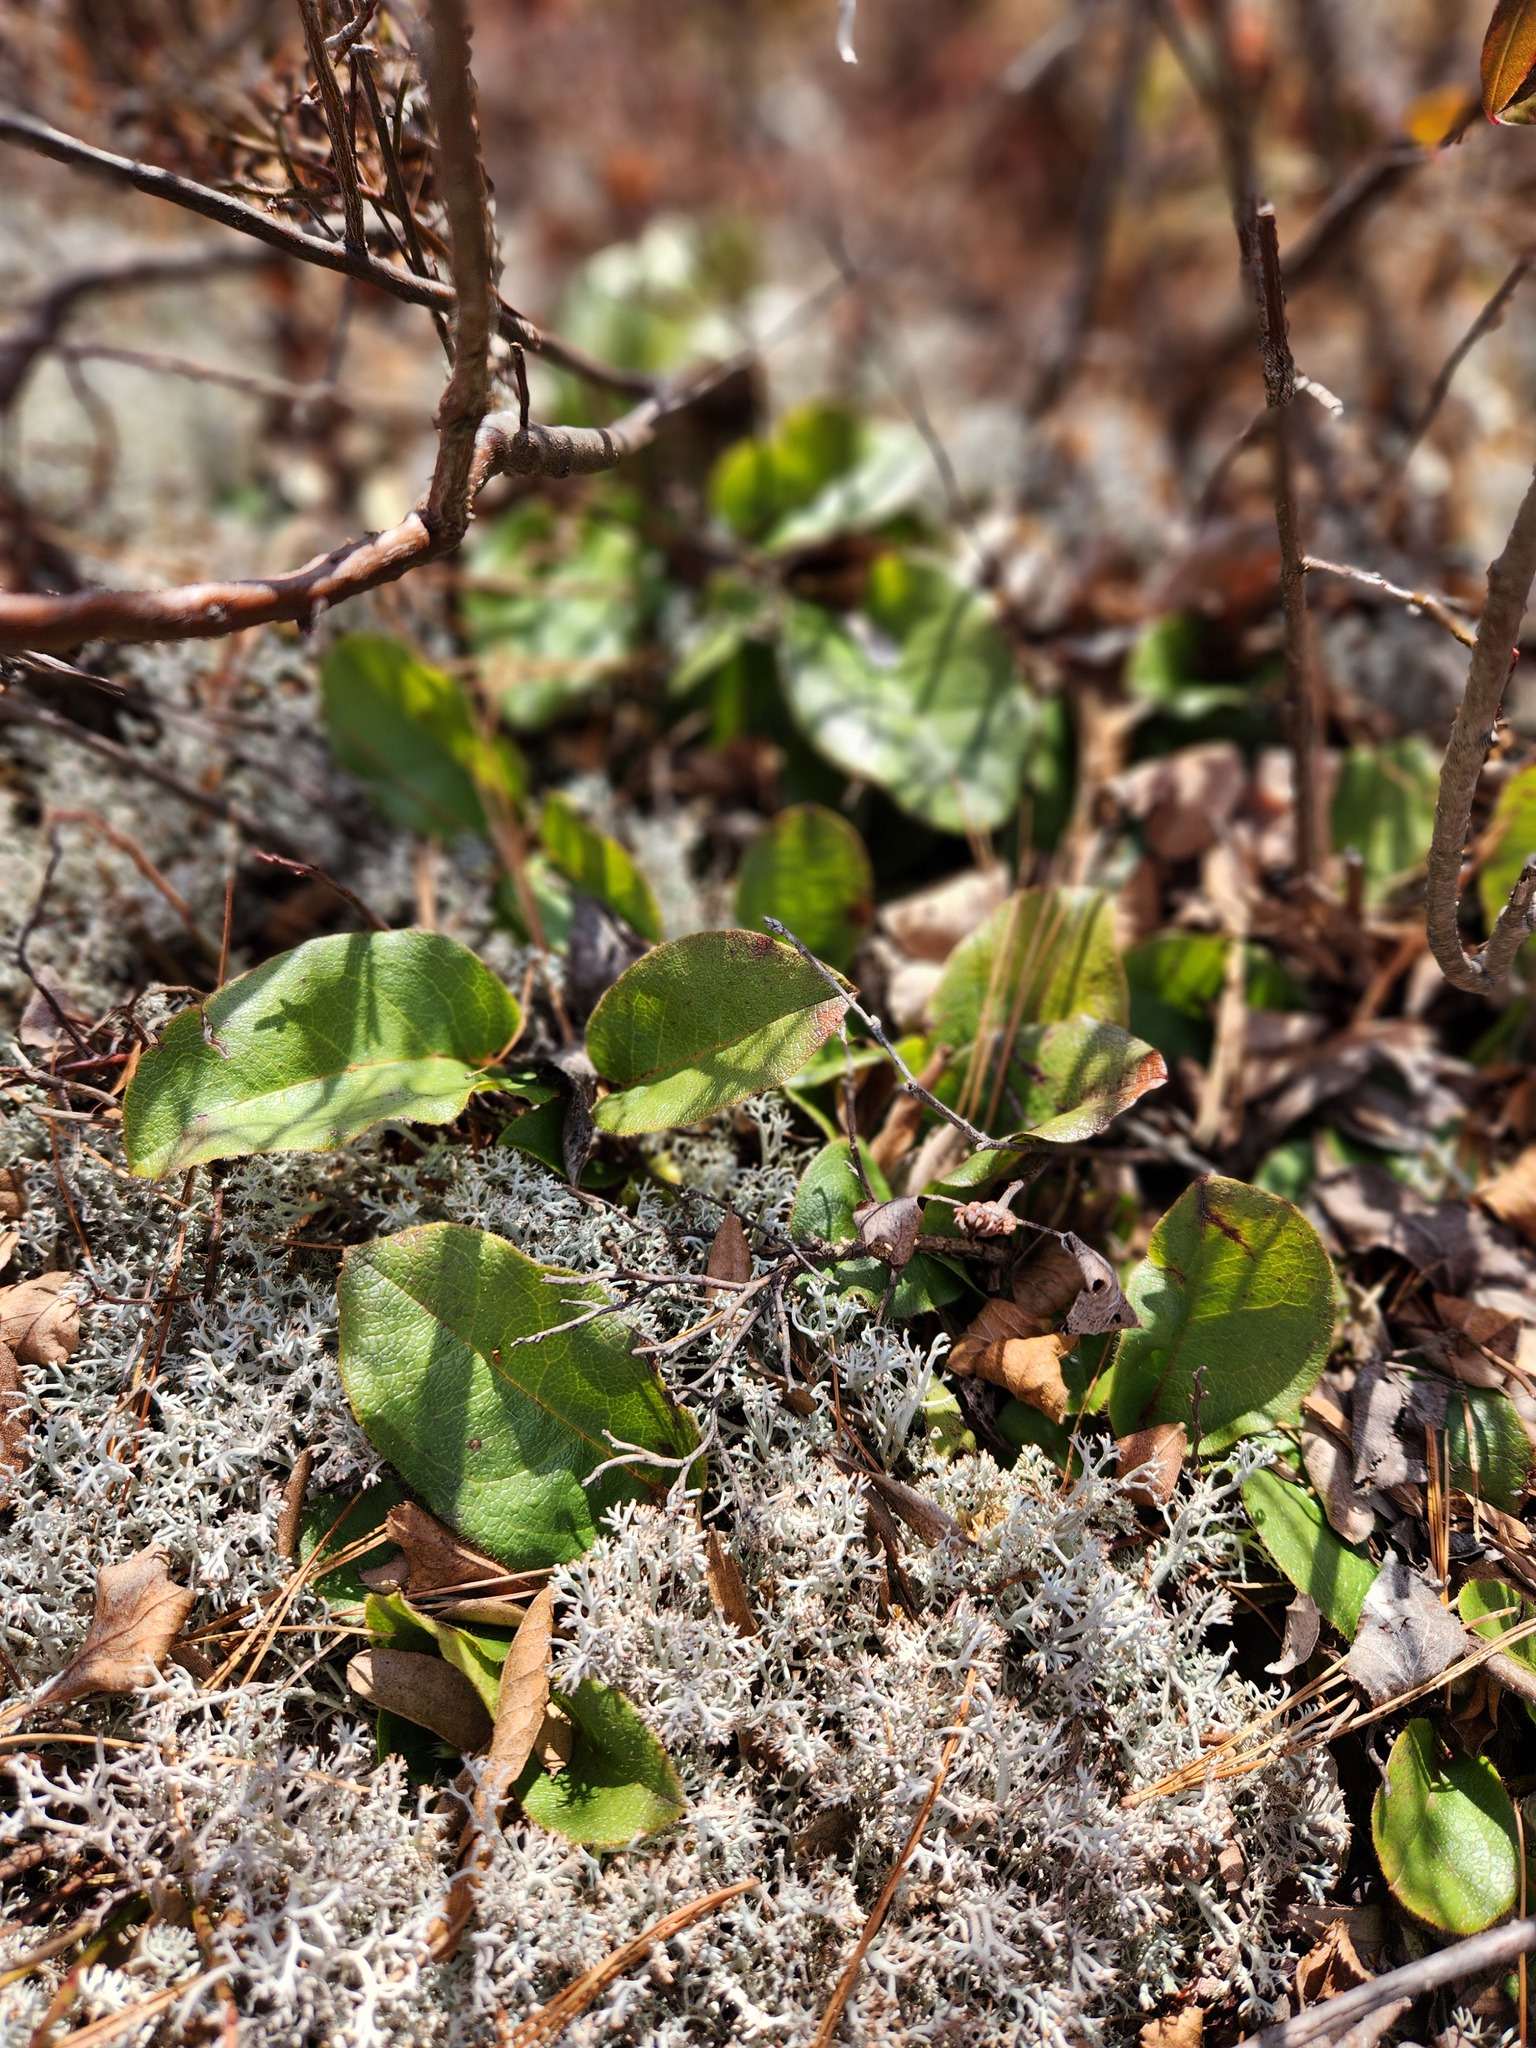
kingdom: Plantae
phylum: Tracheophyta
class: Magnoliopsida
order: Ericales
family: Ericaceae
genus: Epigaea
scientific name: Epigaea repens
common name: Gravelroot
